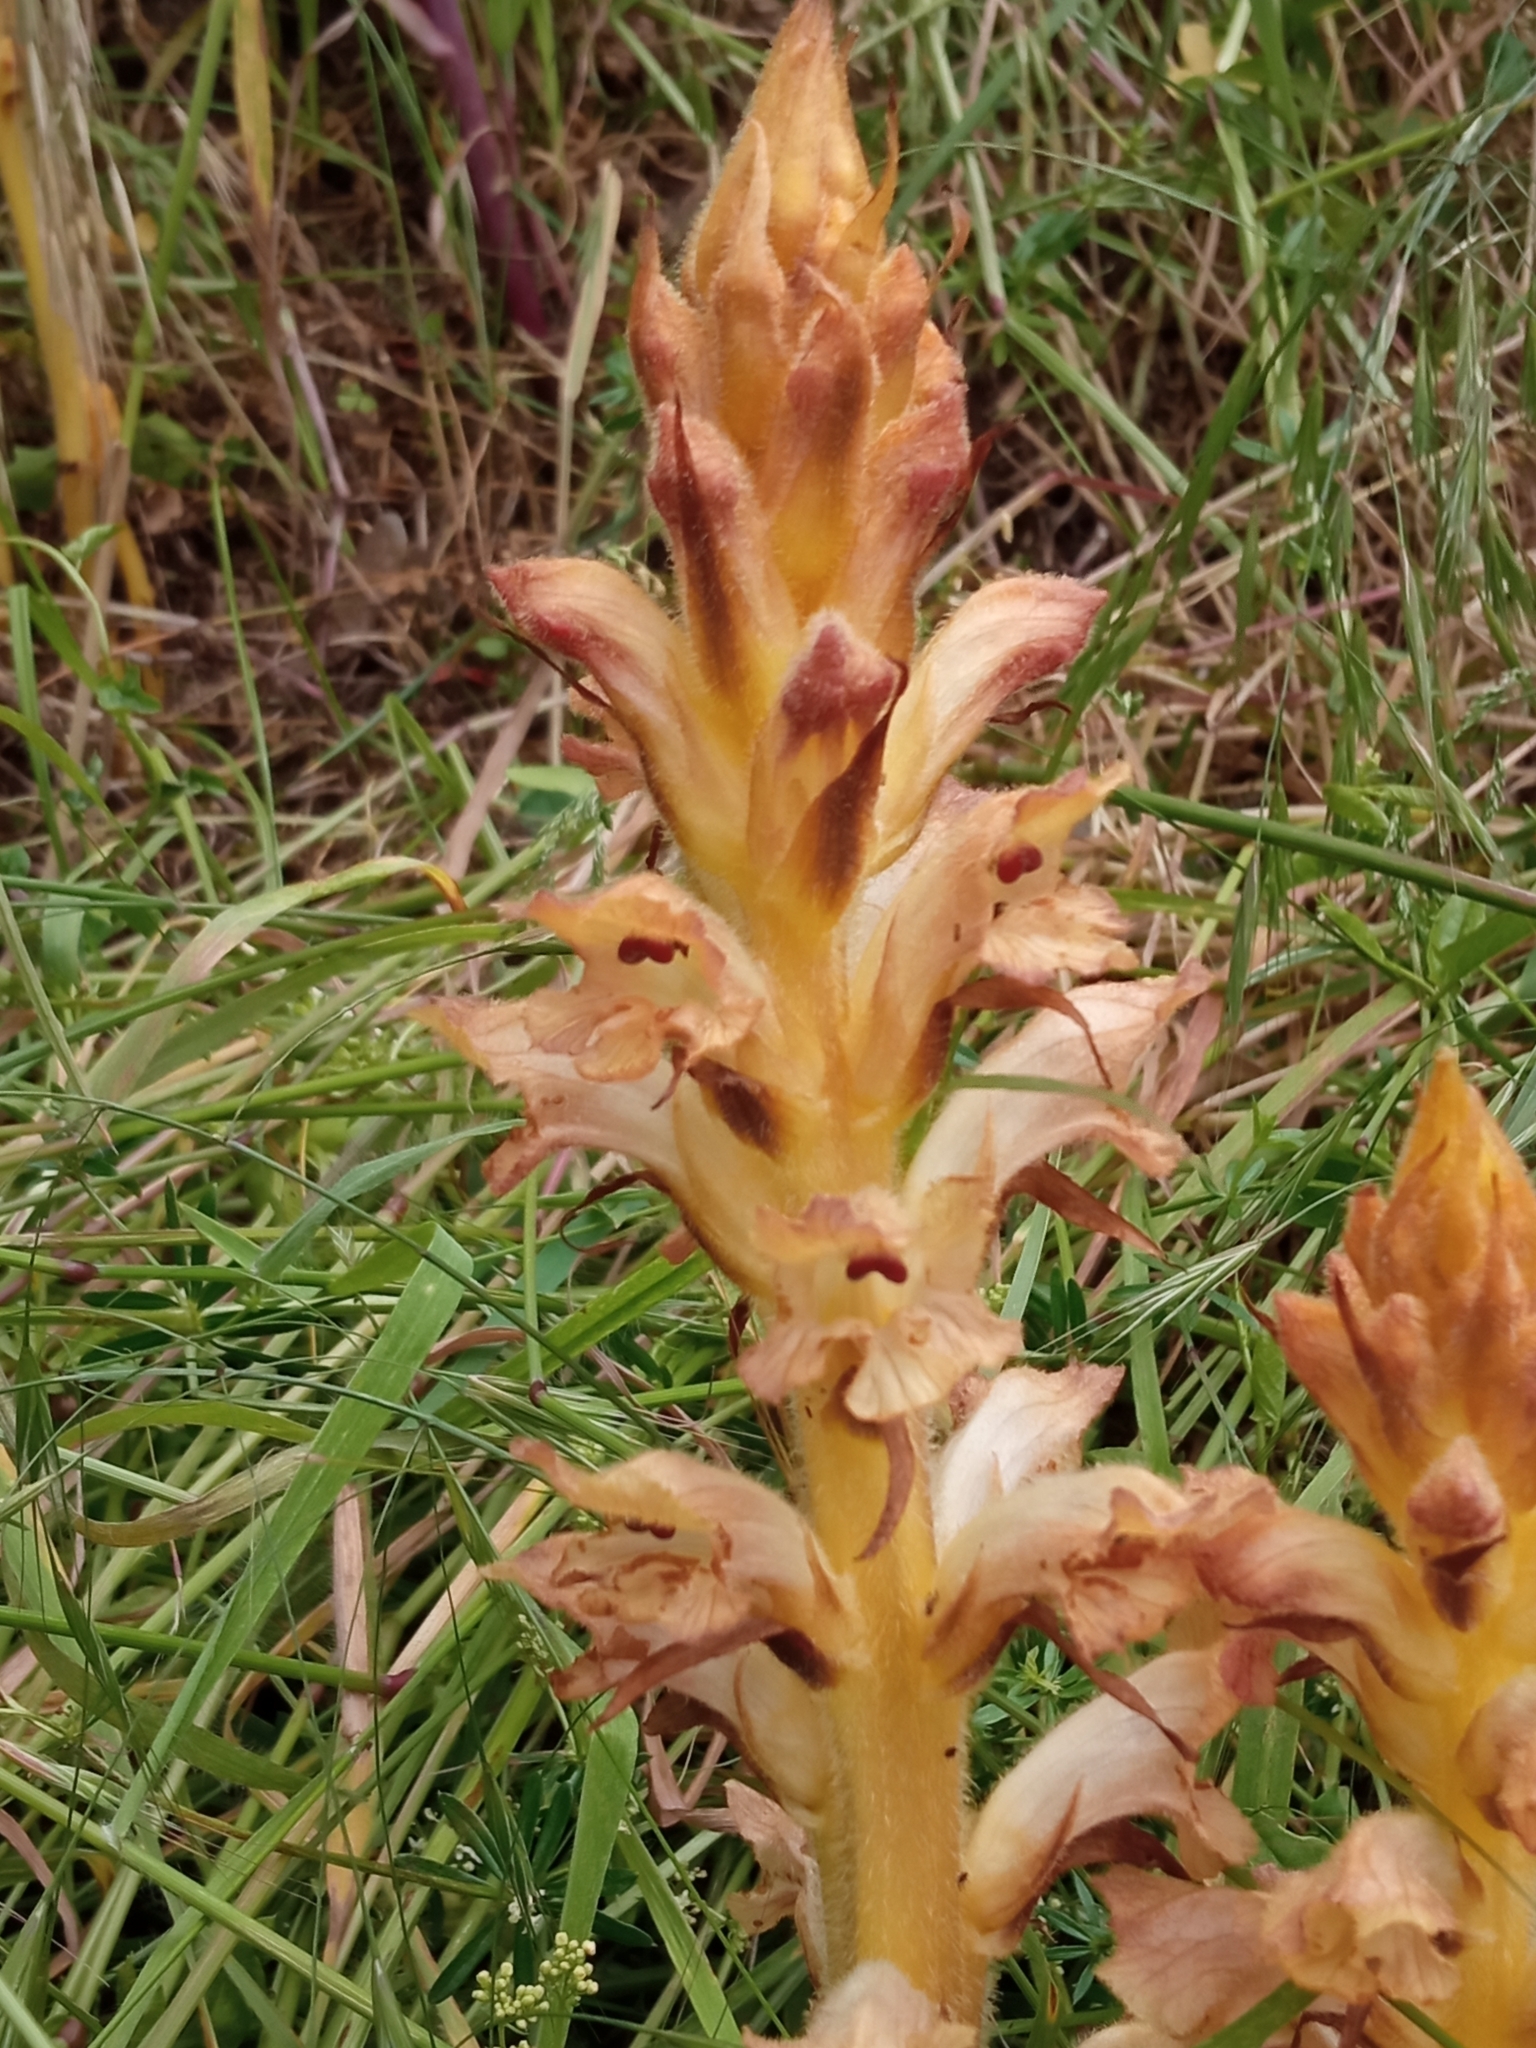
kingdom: Plantae
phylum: Tracheophyta
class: Magnoliopsida
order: Lamiales
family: Orobanchaceae
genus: Orobanche
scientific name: Orobanche caryophyllacea
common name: Bedstraw broomrape
